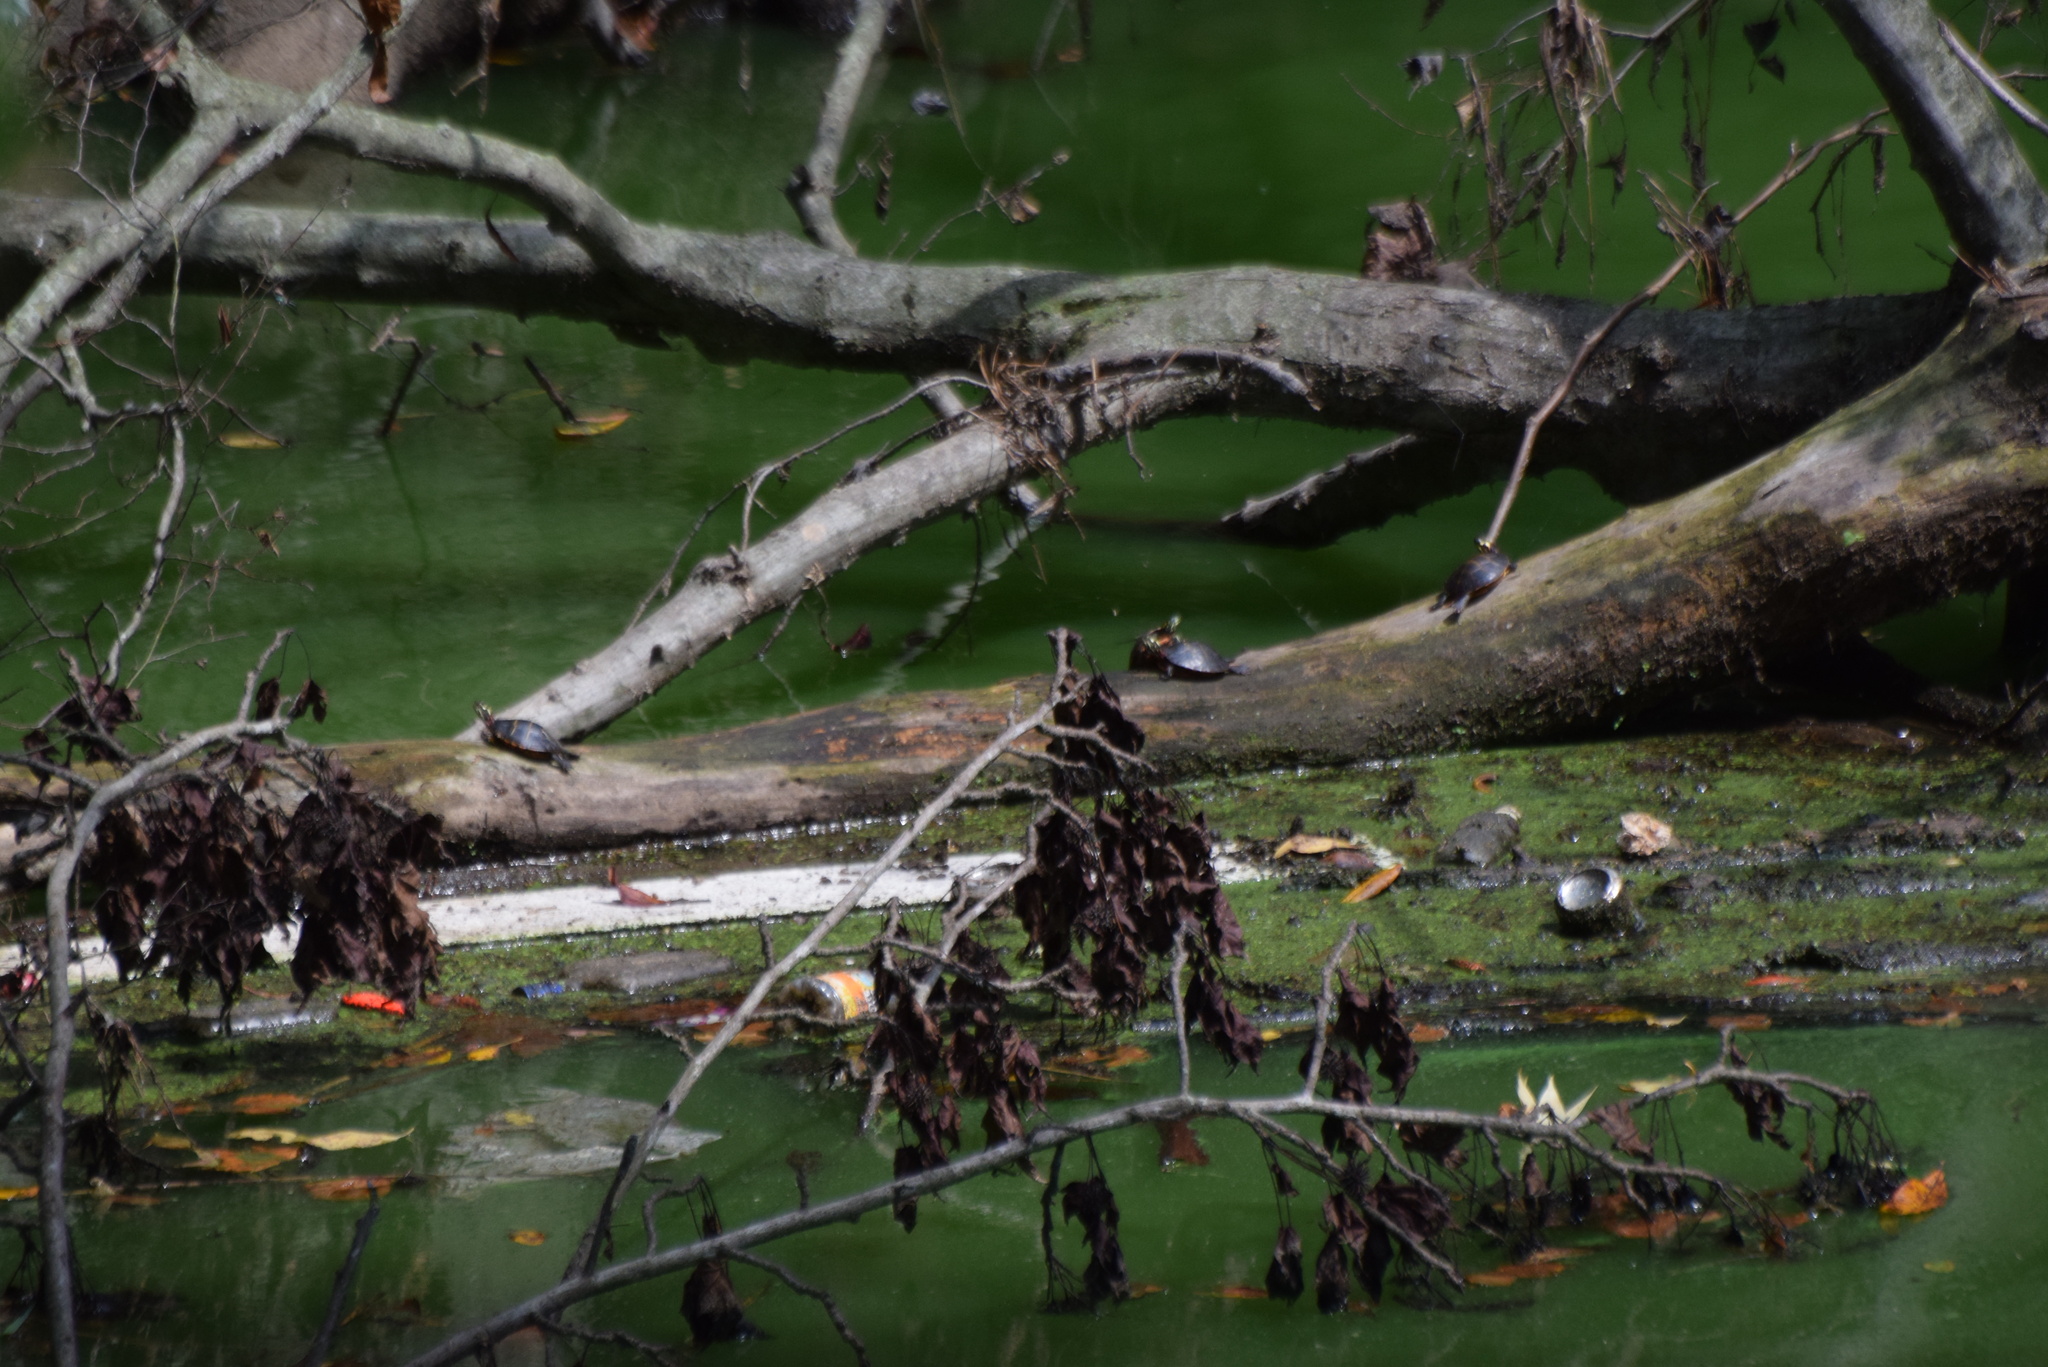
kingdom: Animalia
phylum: Chordata
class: Testudines
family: Emydidae
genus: Chrysemys
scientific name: Chrysemys picta
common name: Painted turtle
